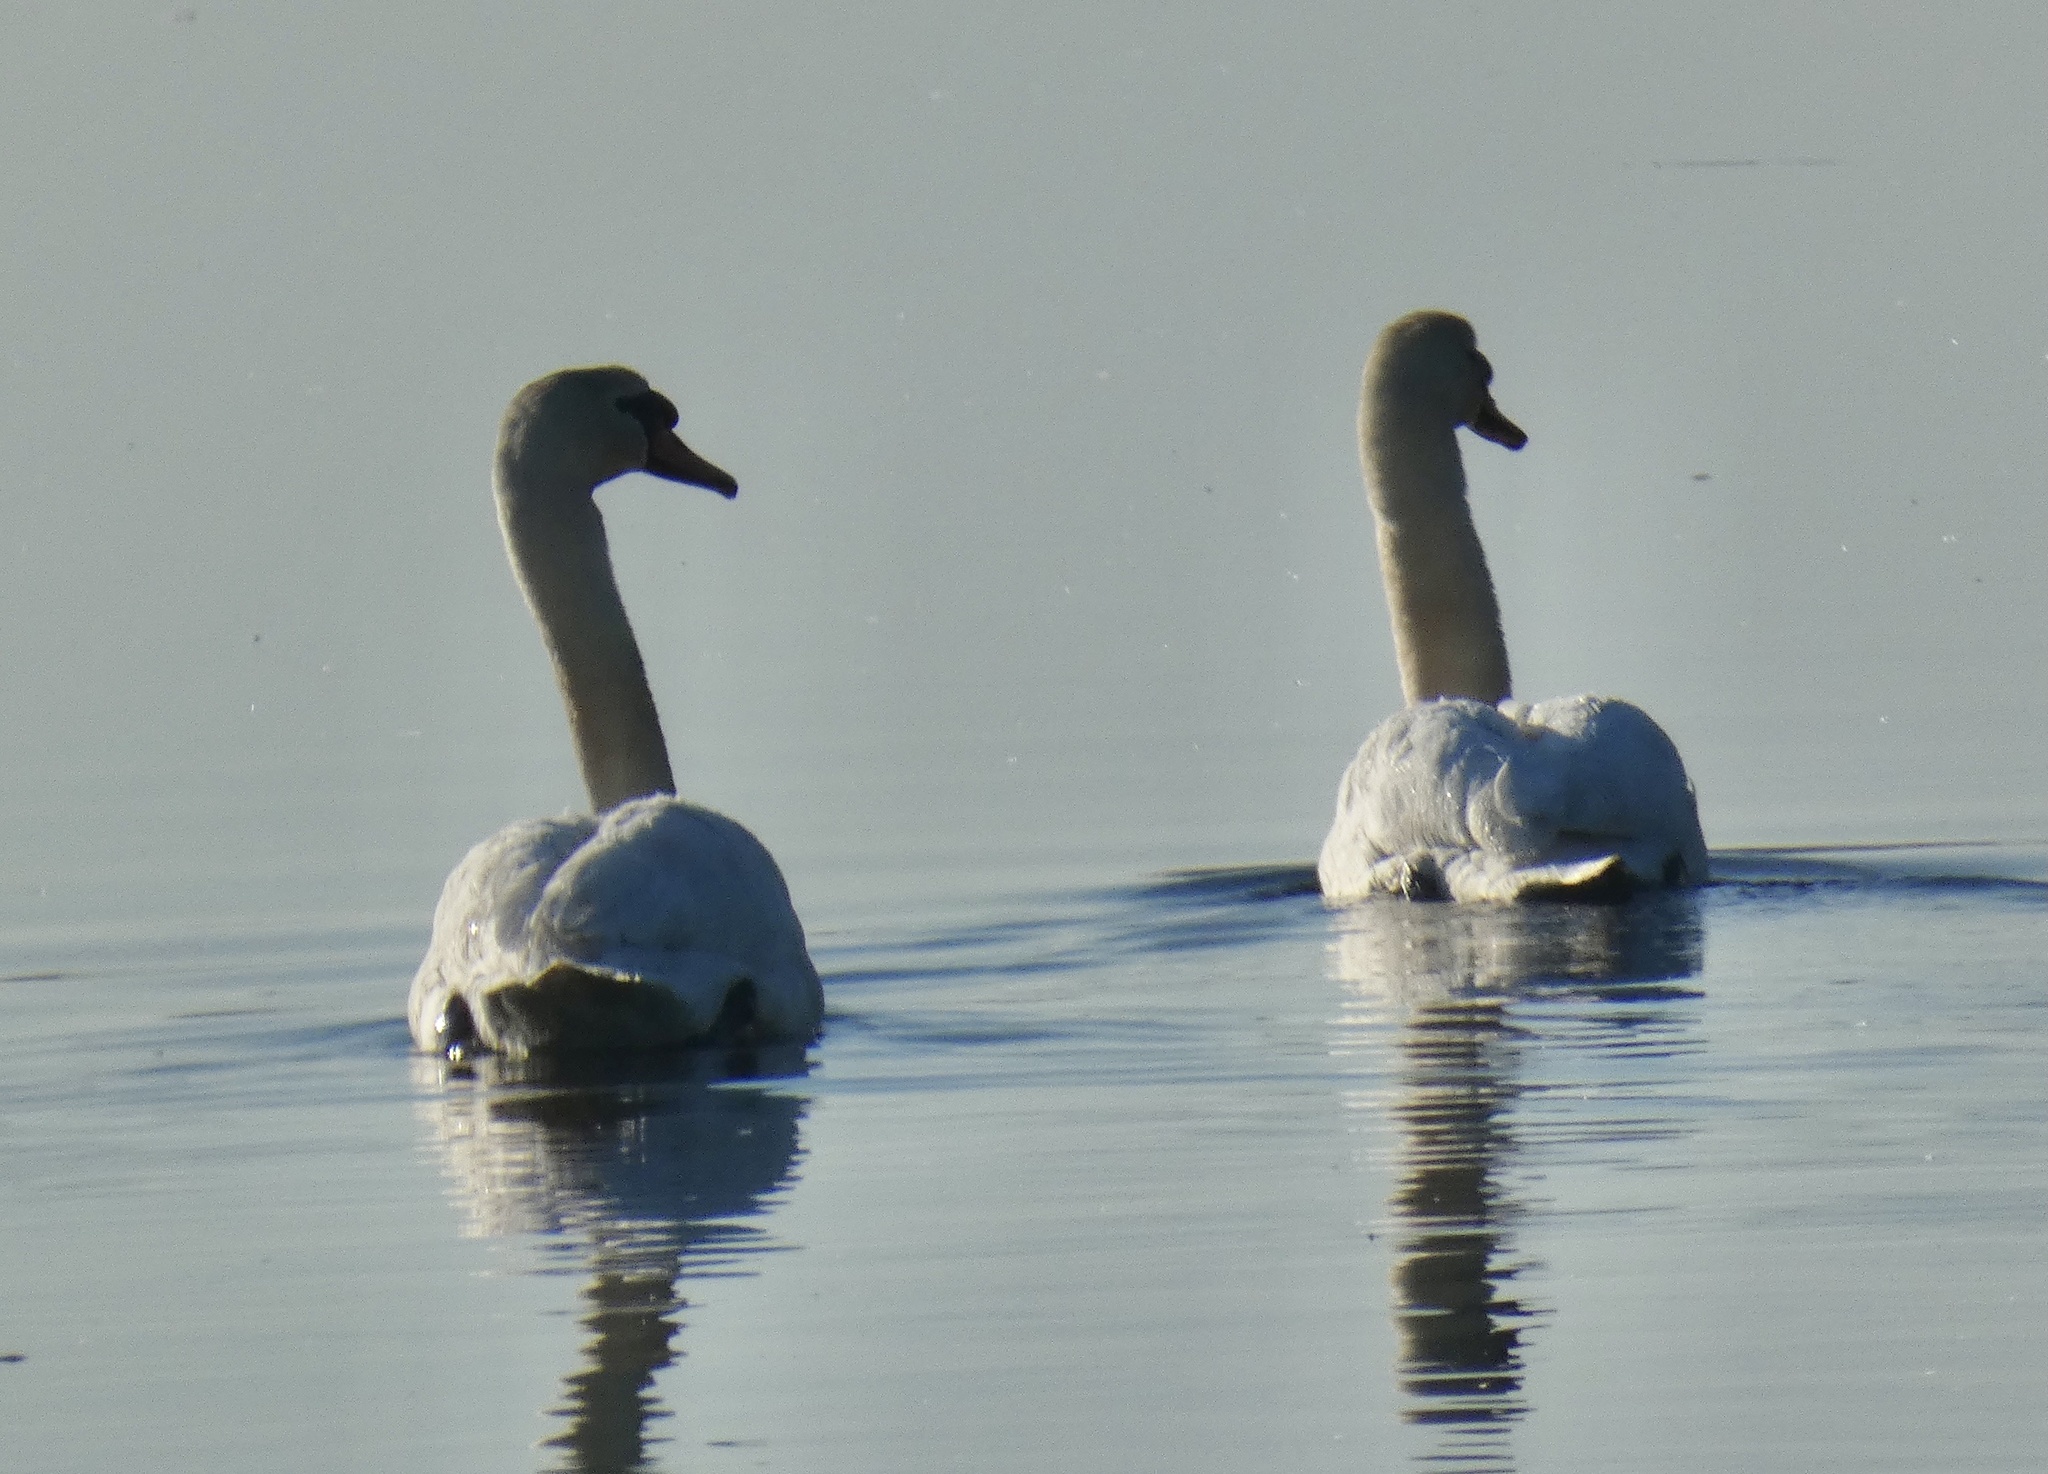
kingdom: Animalia
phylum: Chordata
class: Aves
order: Anseriformes
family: Anatidae
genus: Cygnus
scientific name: Cygnus olor
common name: Mute swan
